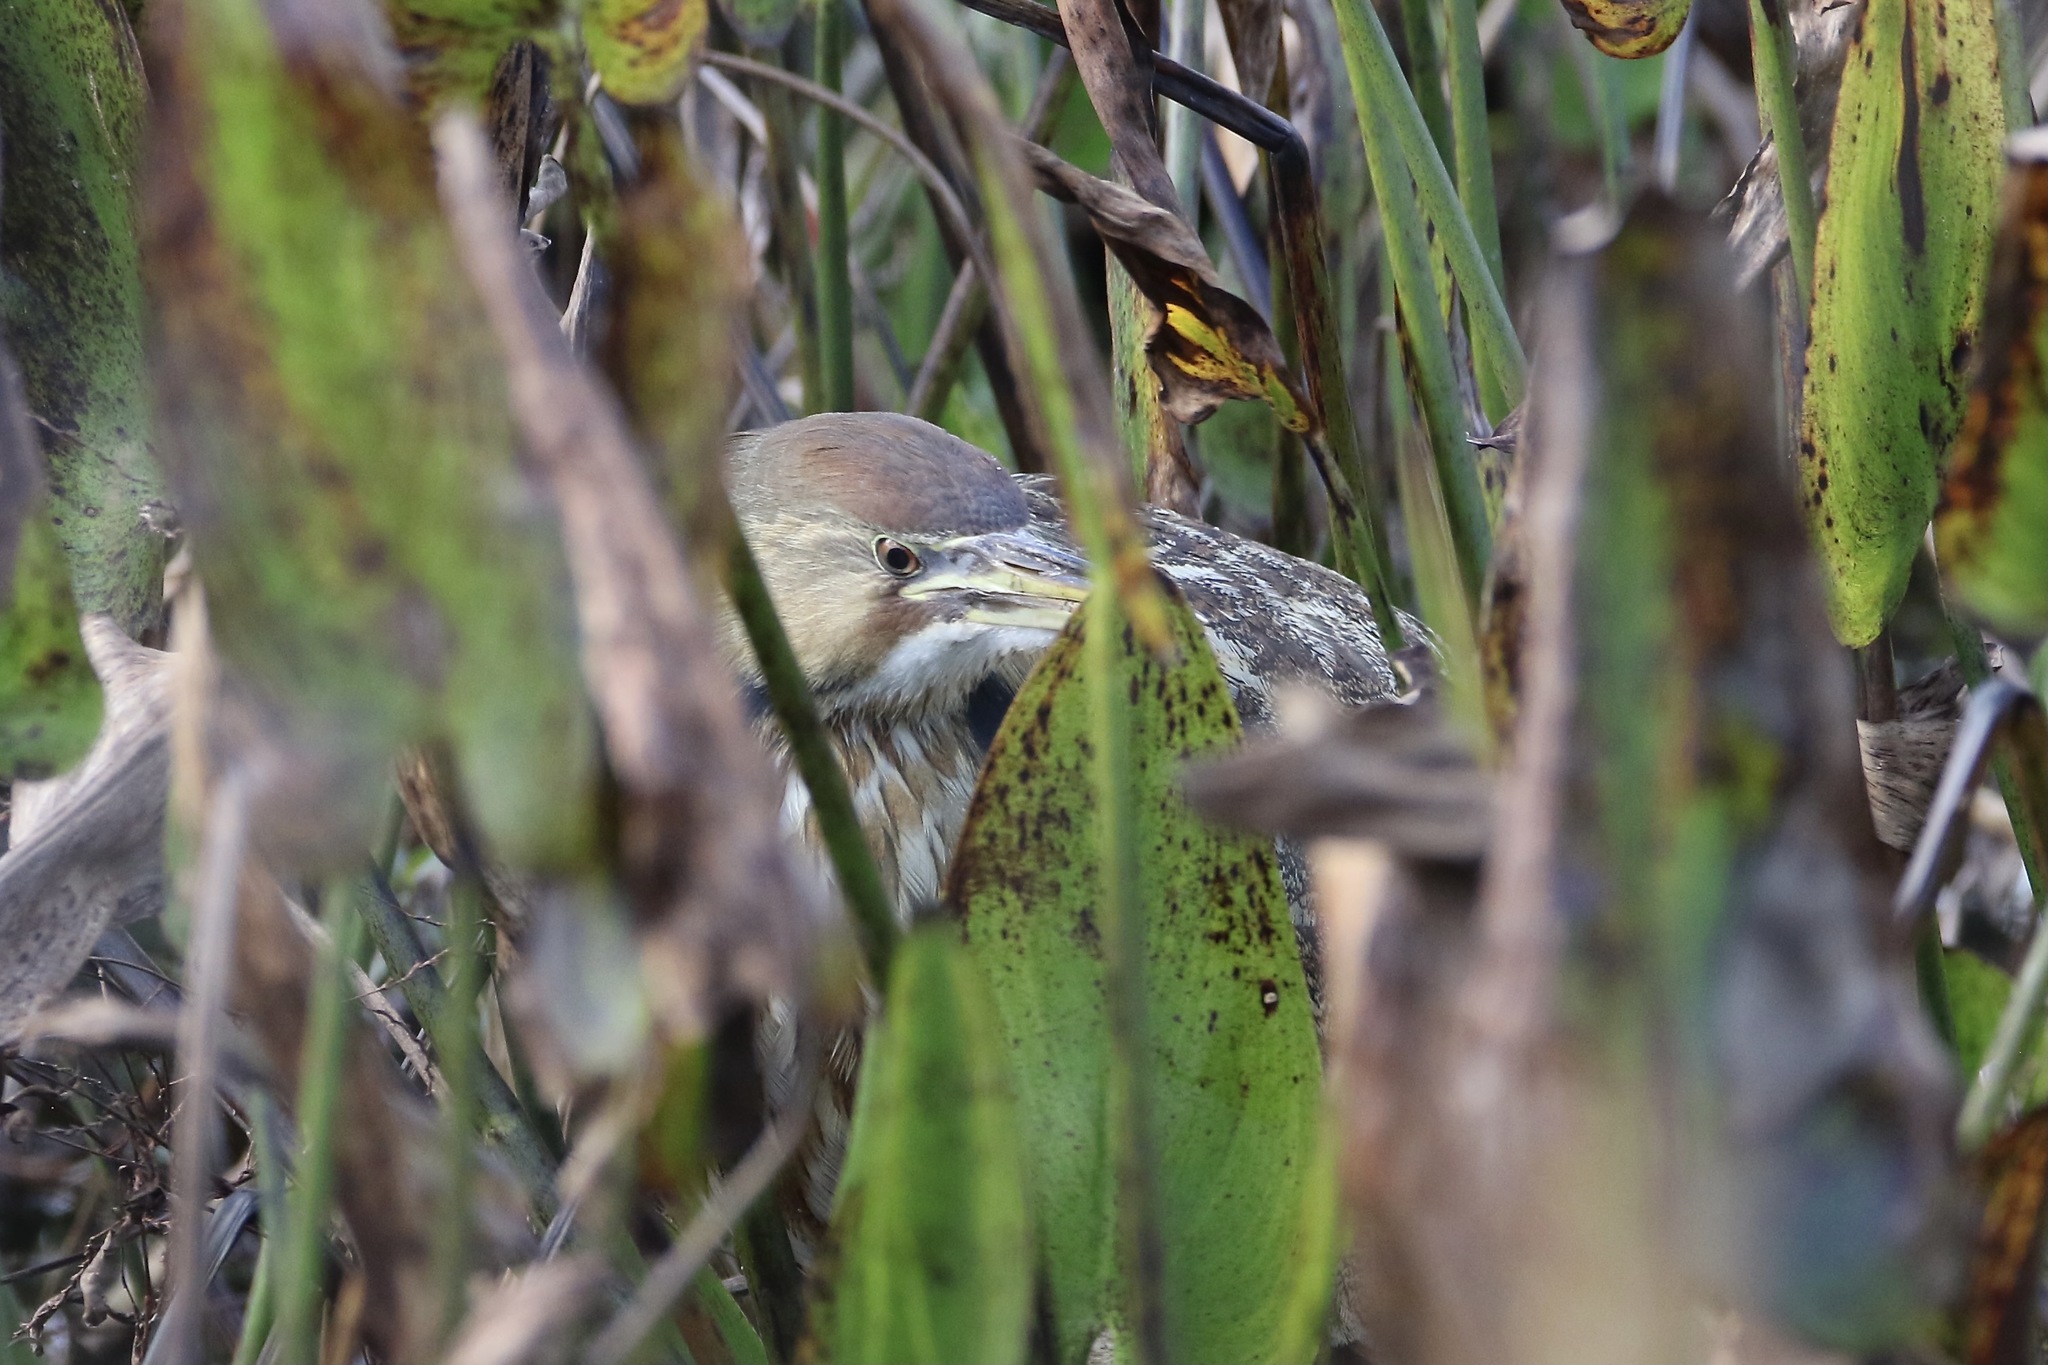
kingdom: Animalia
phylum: Chordata
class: Aves
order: Pelecaniformes
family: Ardeidae
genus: Botaurus
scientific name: Botaurus lentiginosus
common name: American bittern
